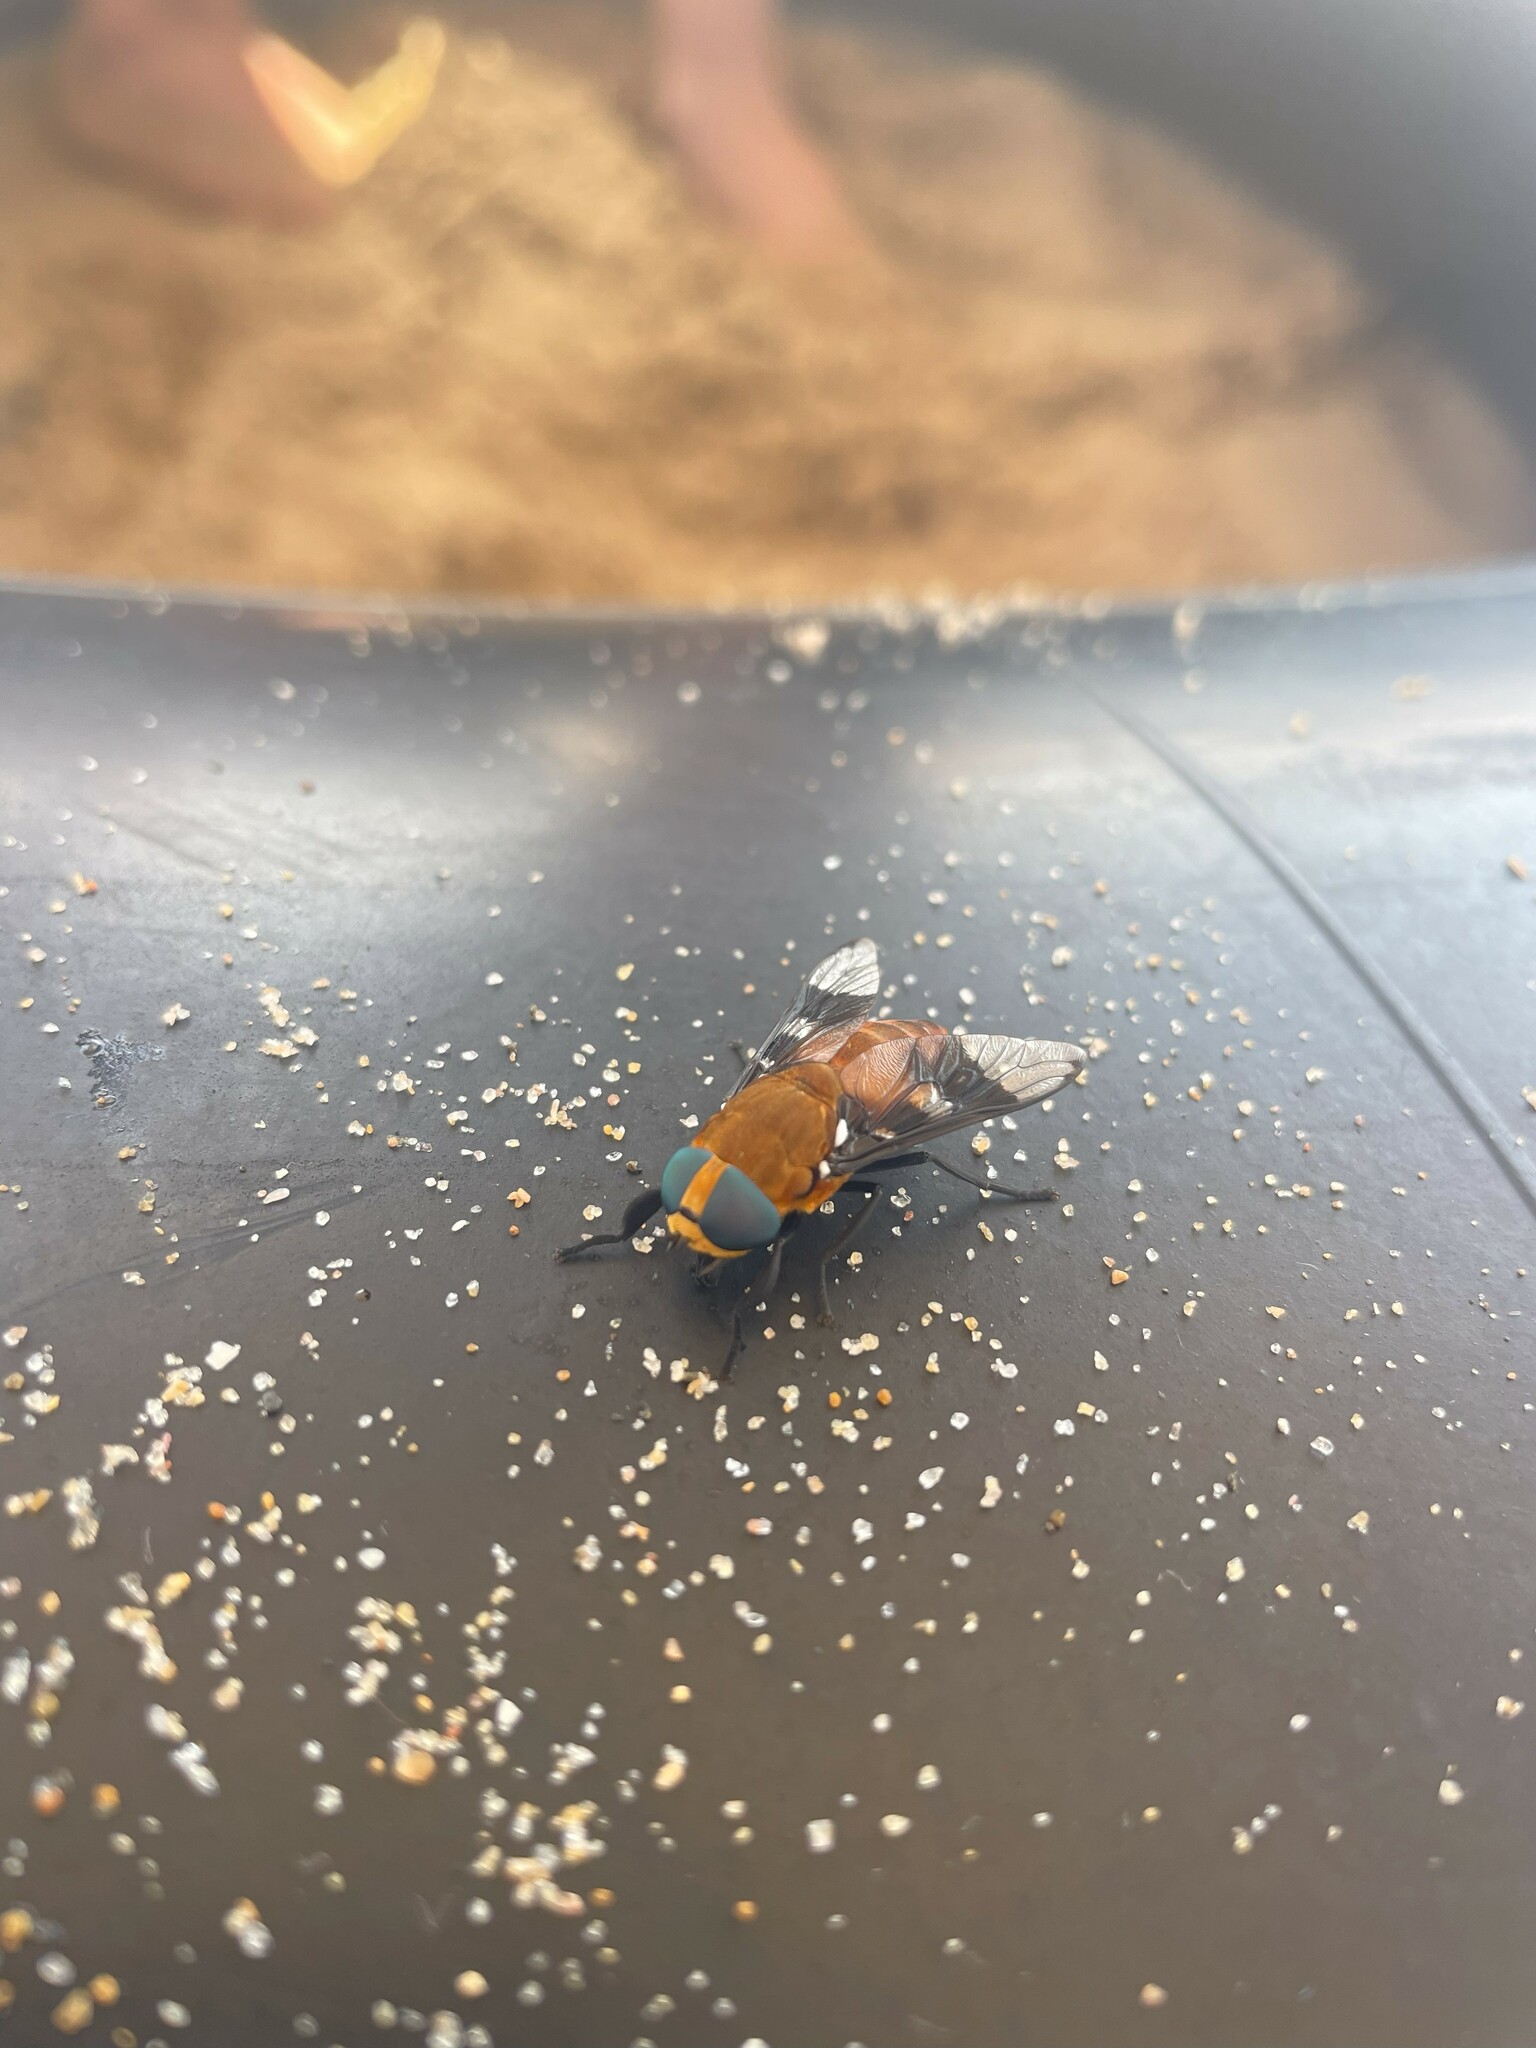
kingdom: Animalia
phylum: Arthropoda
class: Insecta
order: Diptera
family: Tabanidae
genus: Ancala
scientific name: Ancala africana
